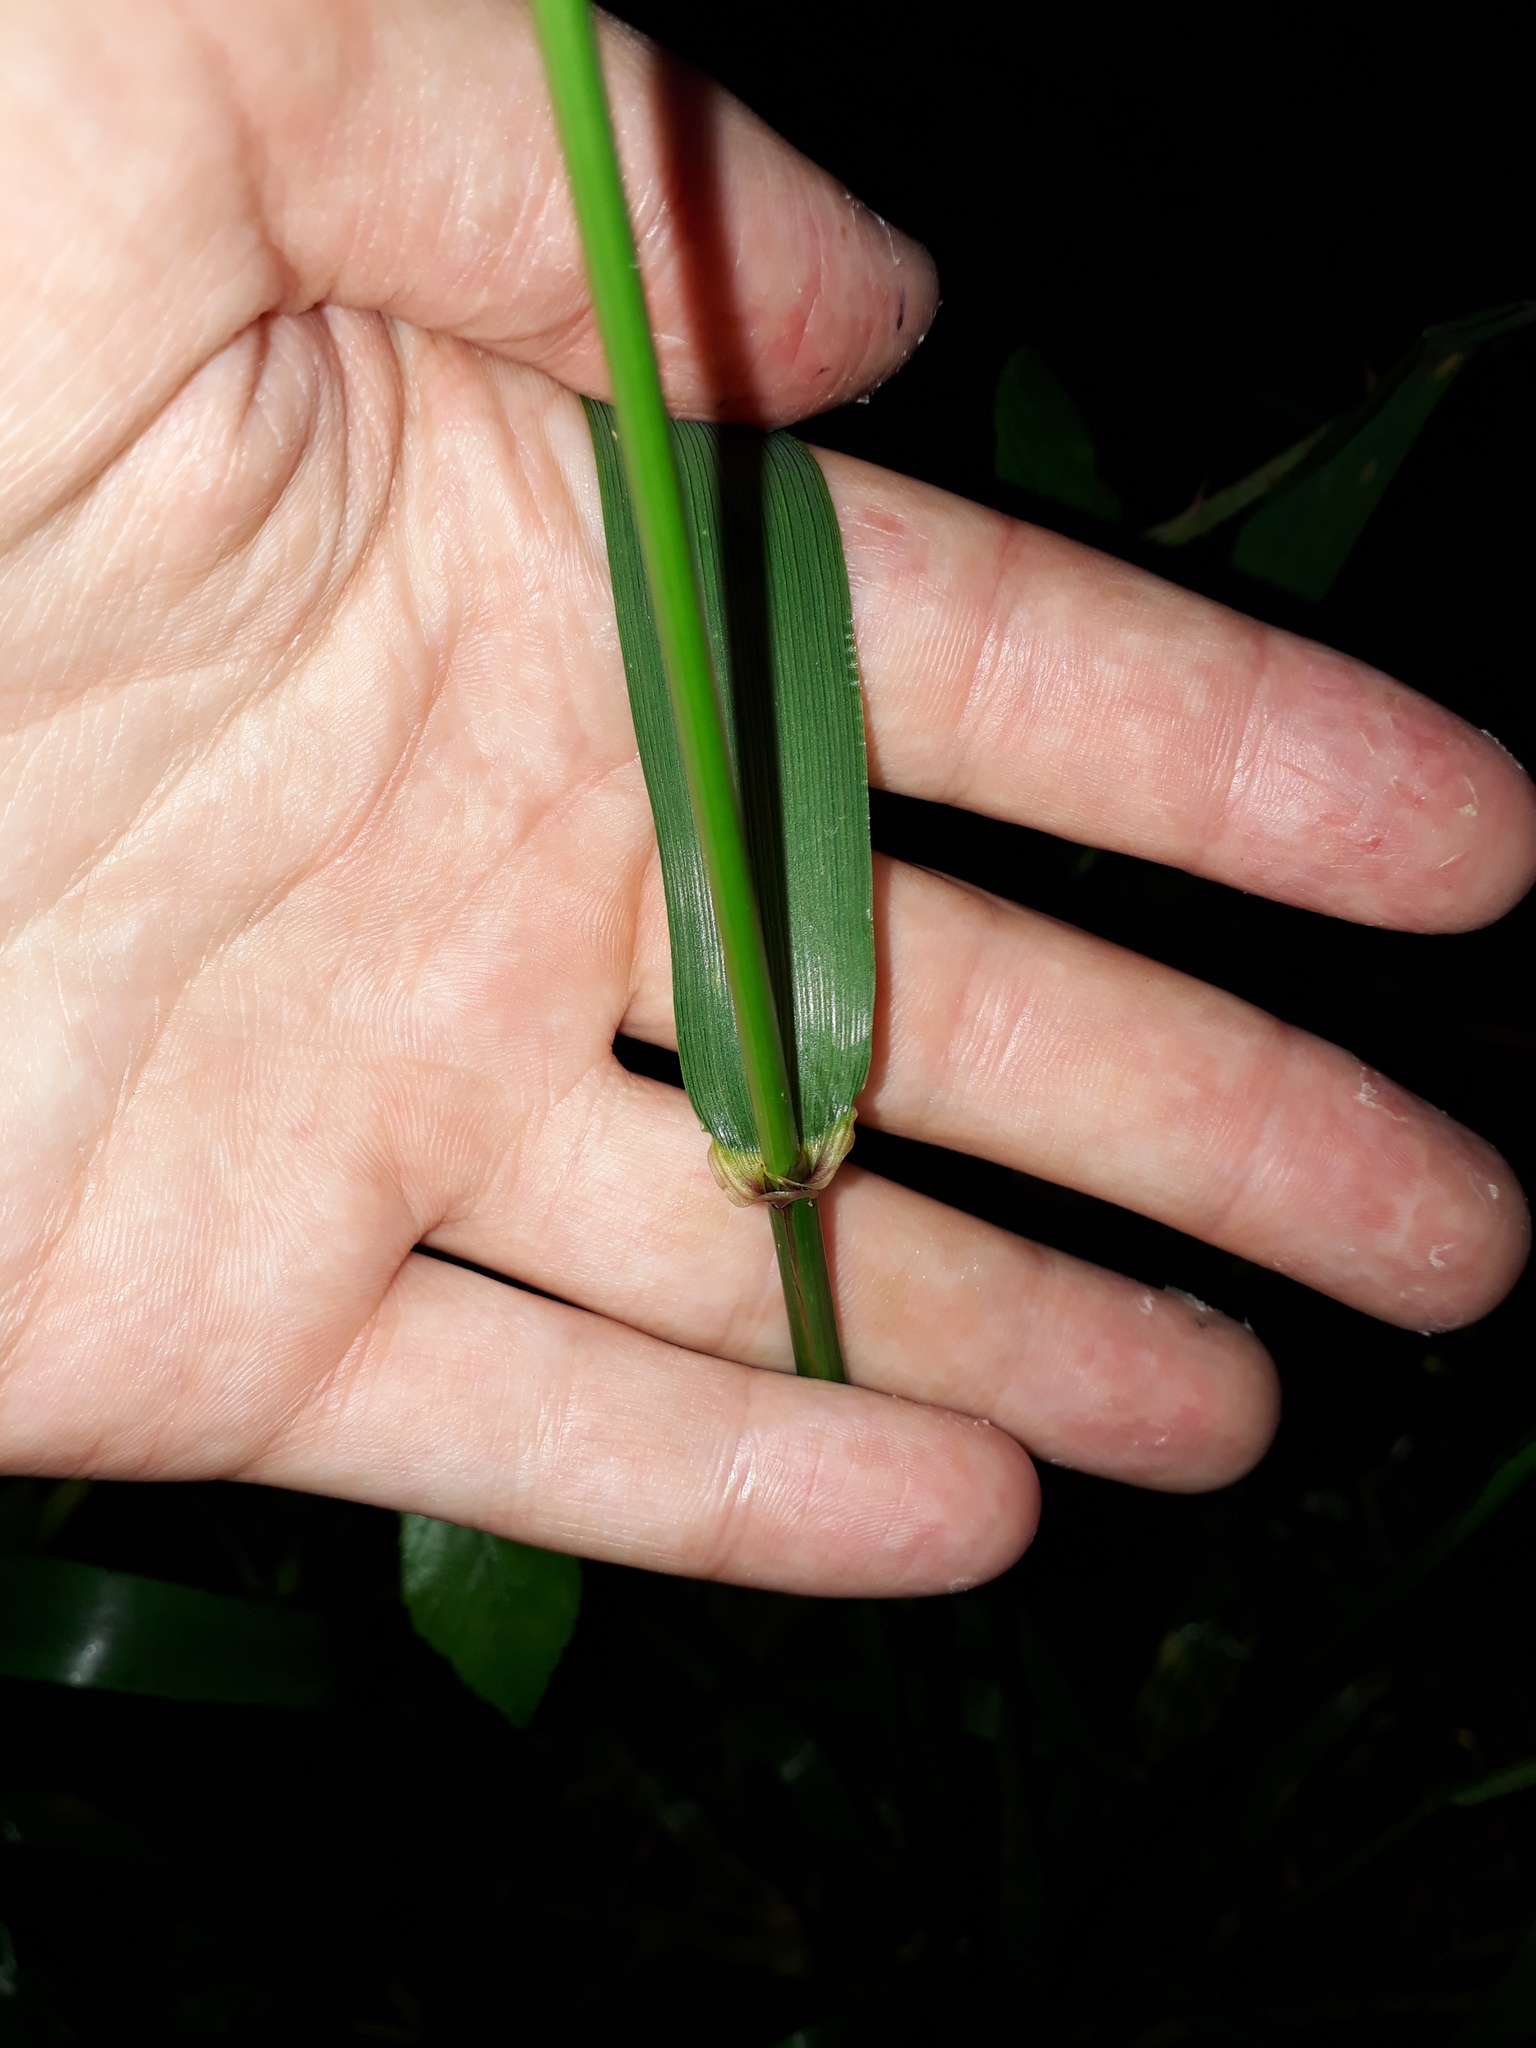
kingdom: Plantae
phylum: Tracheophyta
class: Liliopsida
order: Poales
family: Poaceae
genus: Lolium
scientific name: Lolium giganteum
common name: Giant fescue
